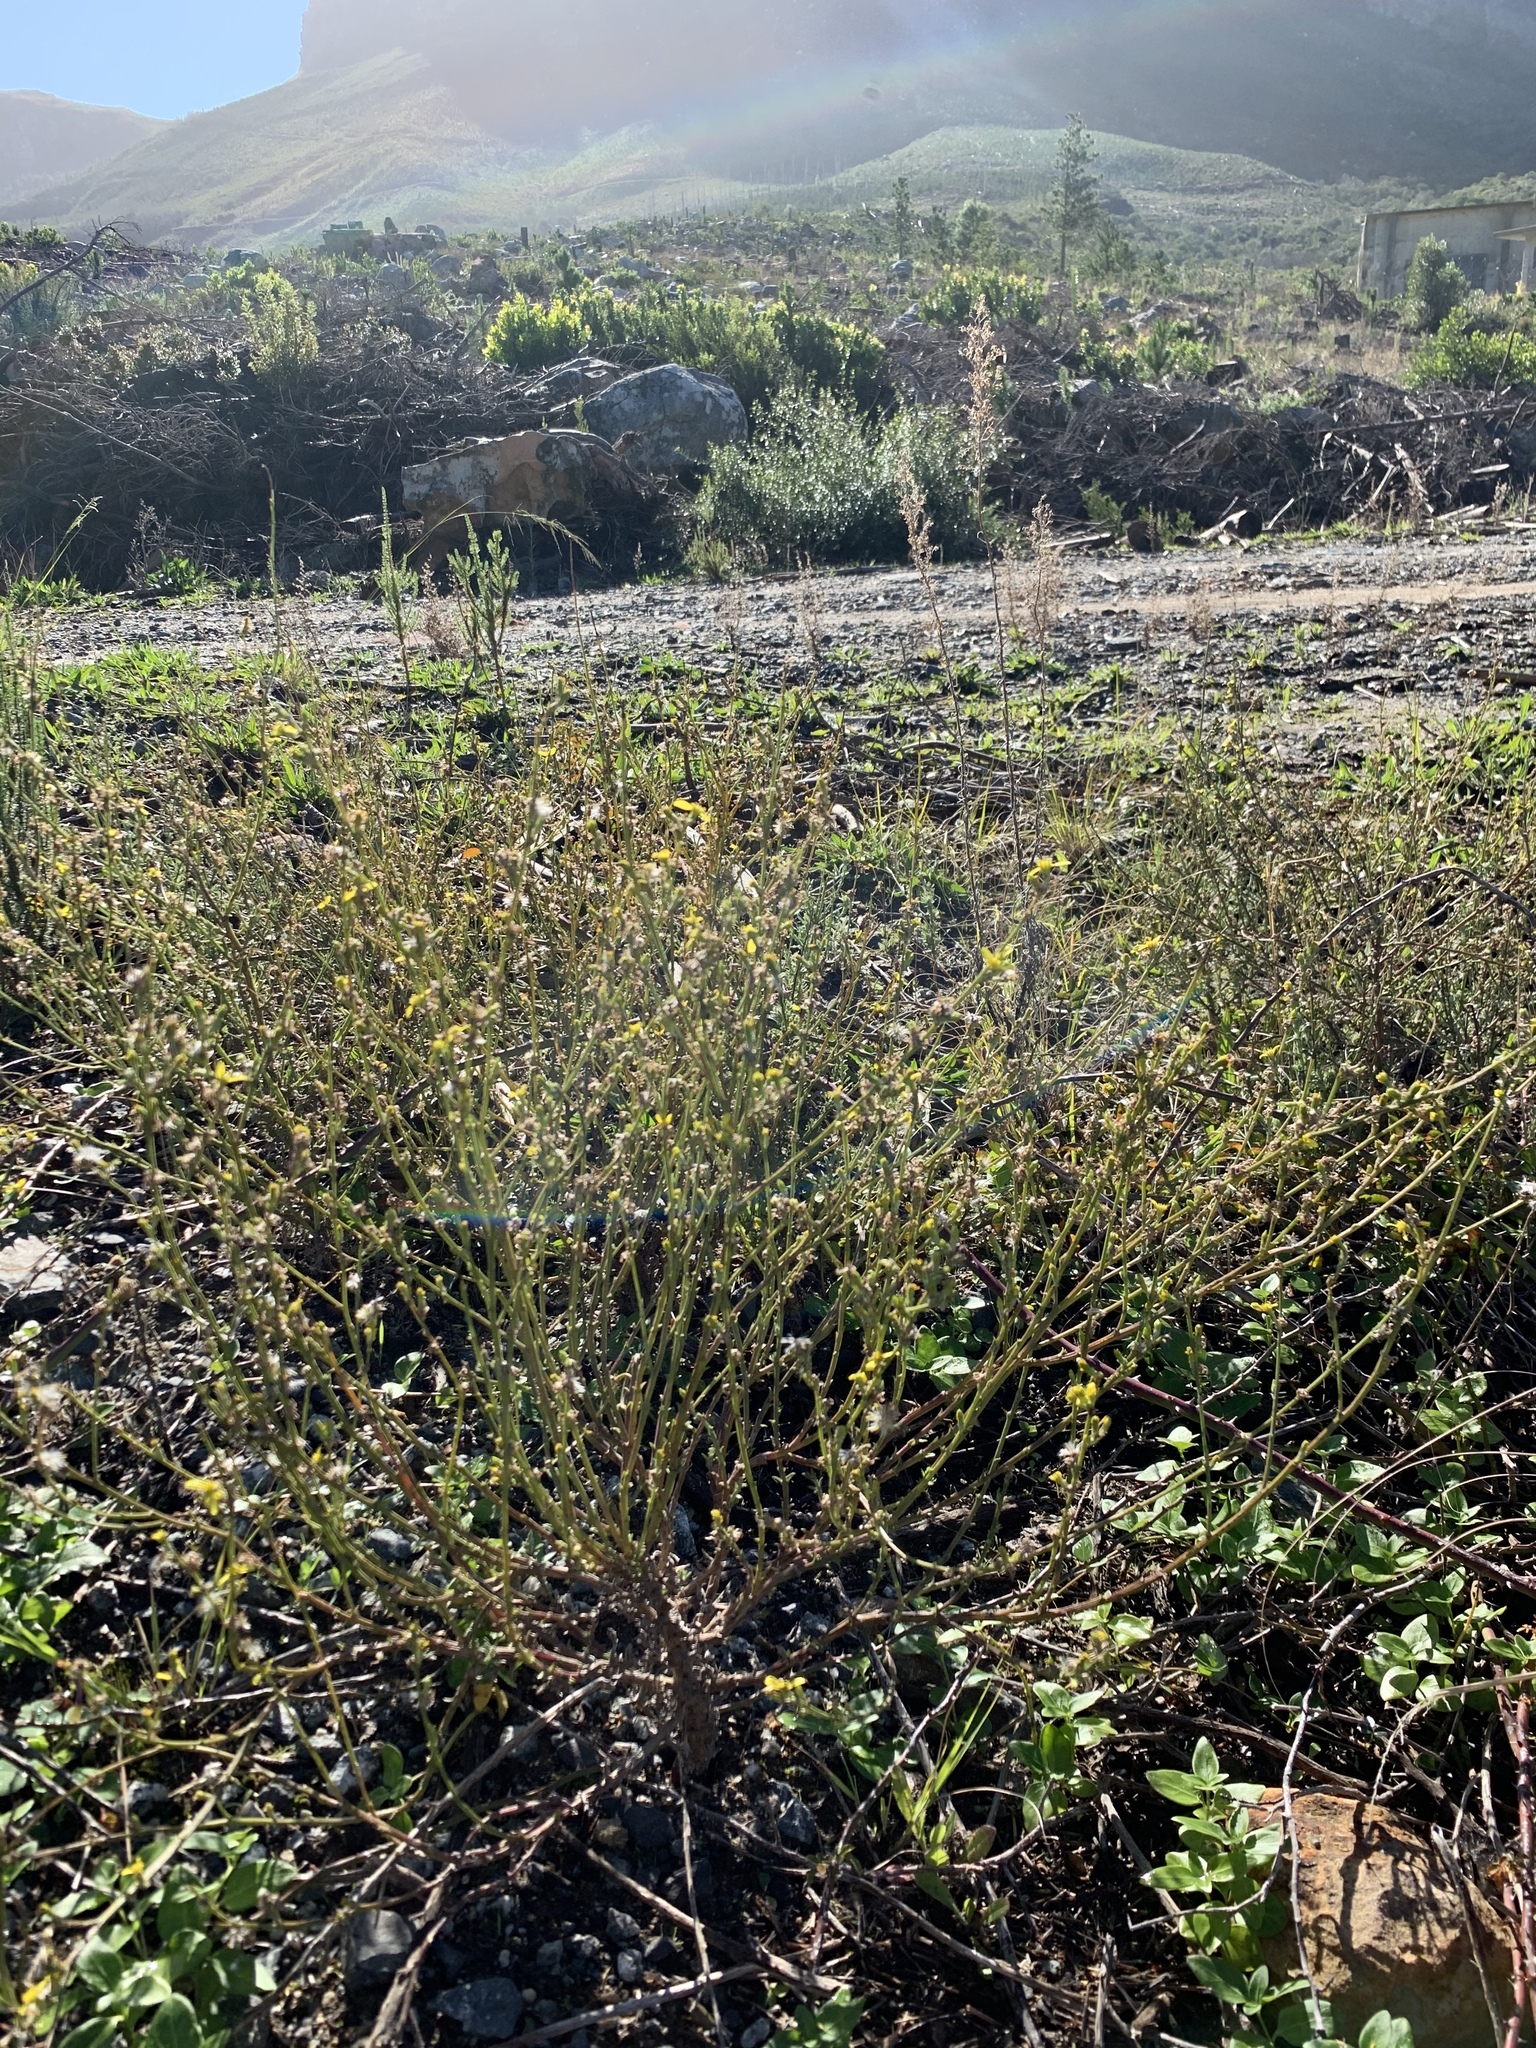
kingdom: Plantae
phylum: Tracheophyta
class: Magnoliopsida
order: Asterales
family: Asteraceae
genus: Senecio
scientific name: Senecio pubigerus
